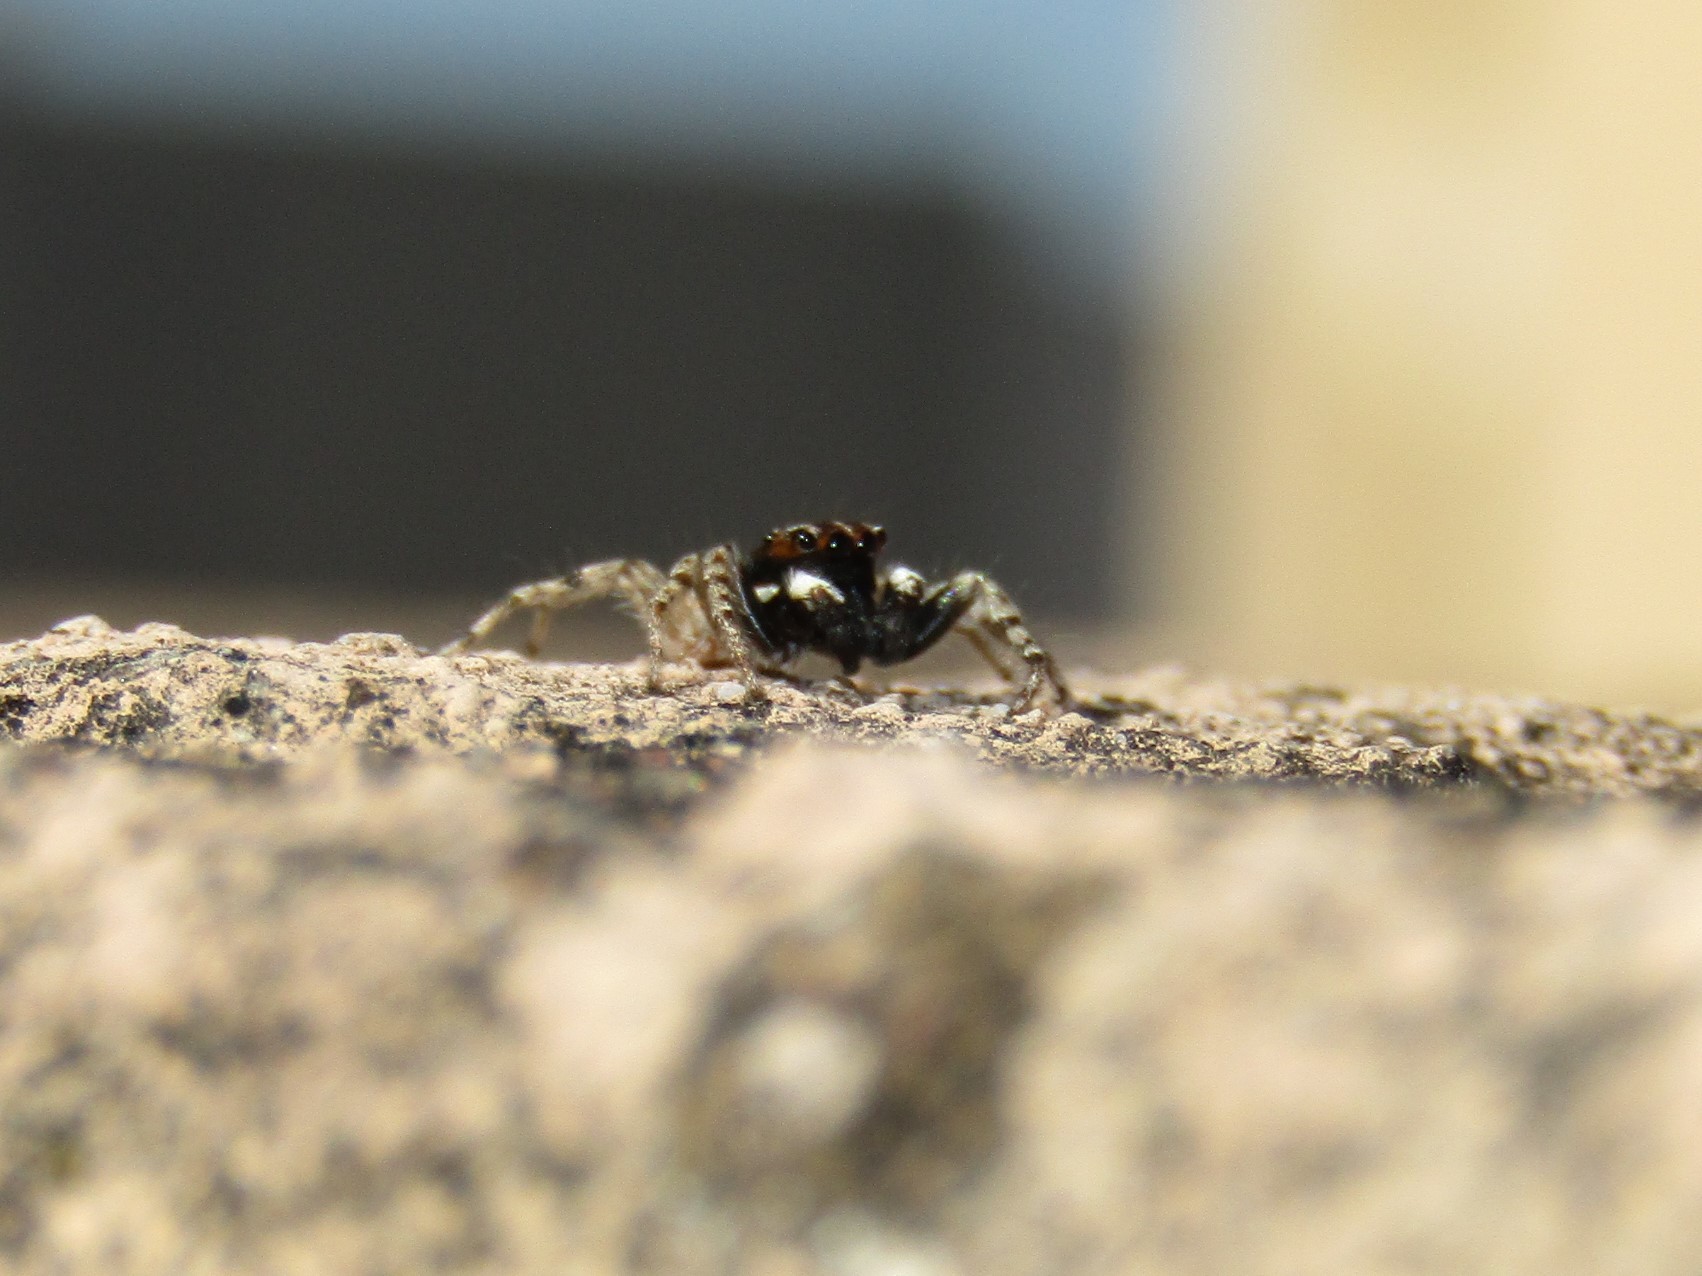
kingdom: Animalia
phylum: Arthropoda
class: Arachnida
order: Araneae
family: Salticidae
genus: Menemerus
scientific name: Menemerus semilimbatus
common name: Jumping spider
